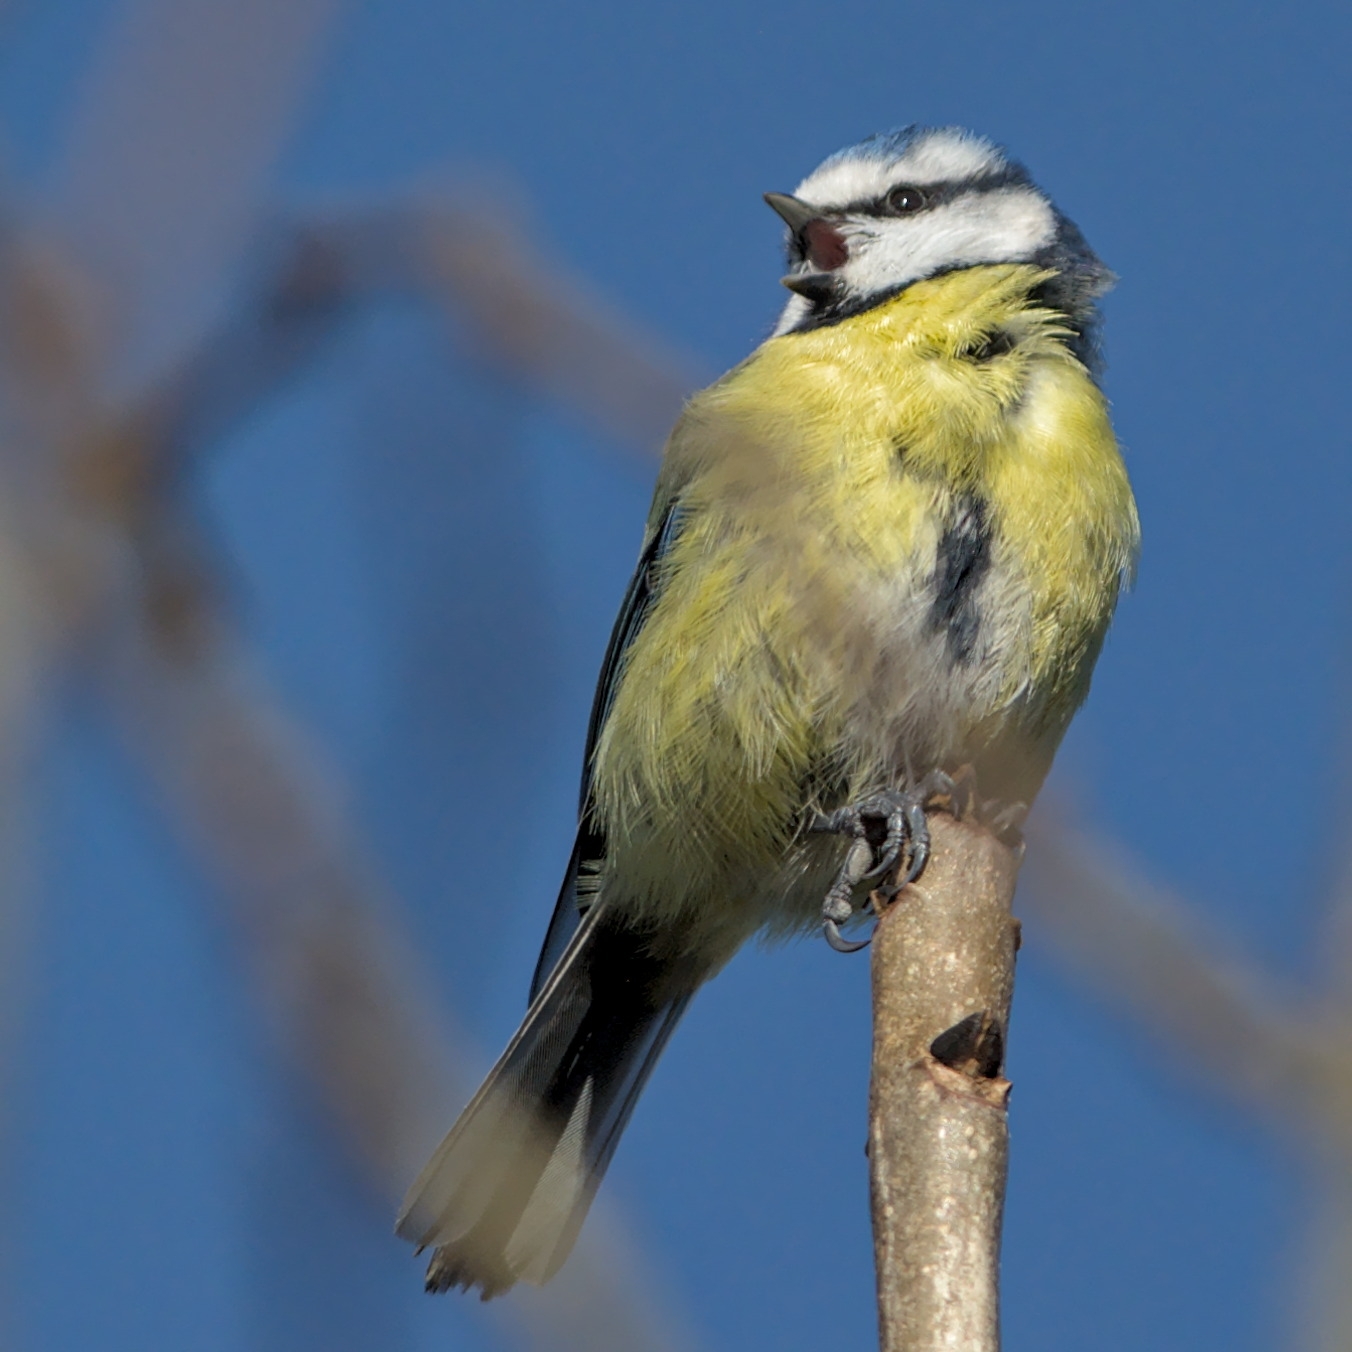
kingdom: Animalia
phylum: Chordata
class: Aves
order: Passeriformes
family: Paridae
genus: Cyanistes
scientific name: Cyanistes caeruleus
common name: Eurasian blue tit
